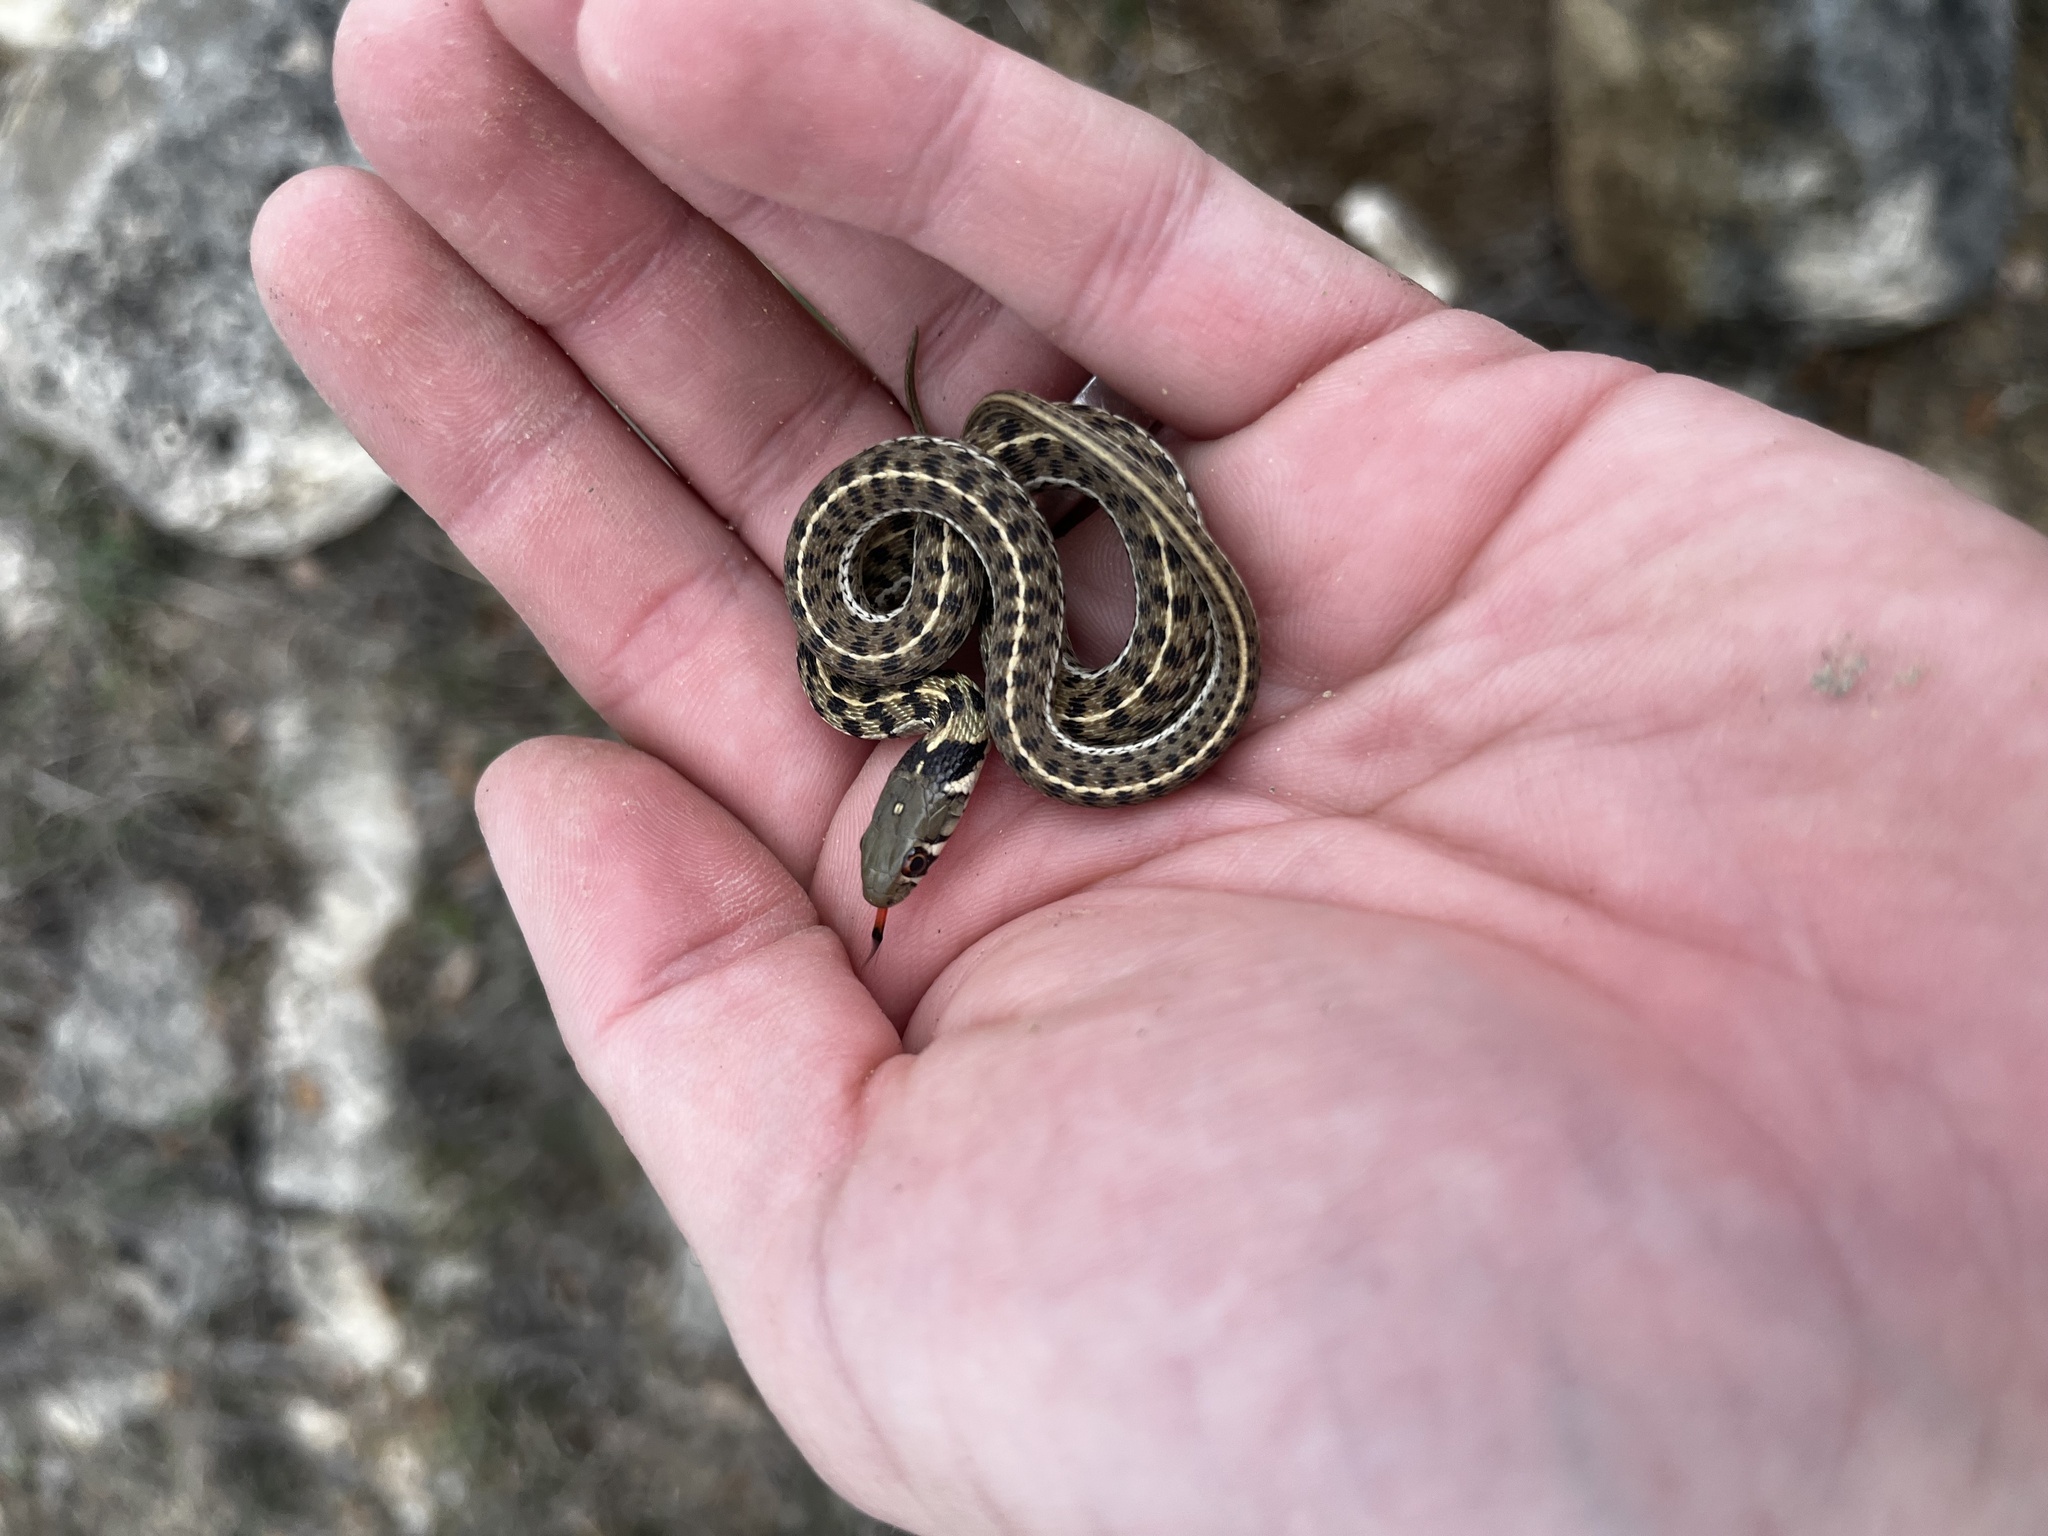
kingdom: Animalia
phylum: Chordata
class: Squamata
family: Colubridae
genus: Thamnophis
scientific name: Thamnophis marcianus
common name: Checkered garter snake
